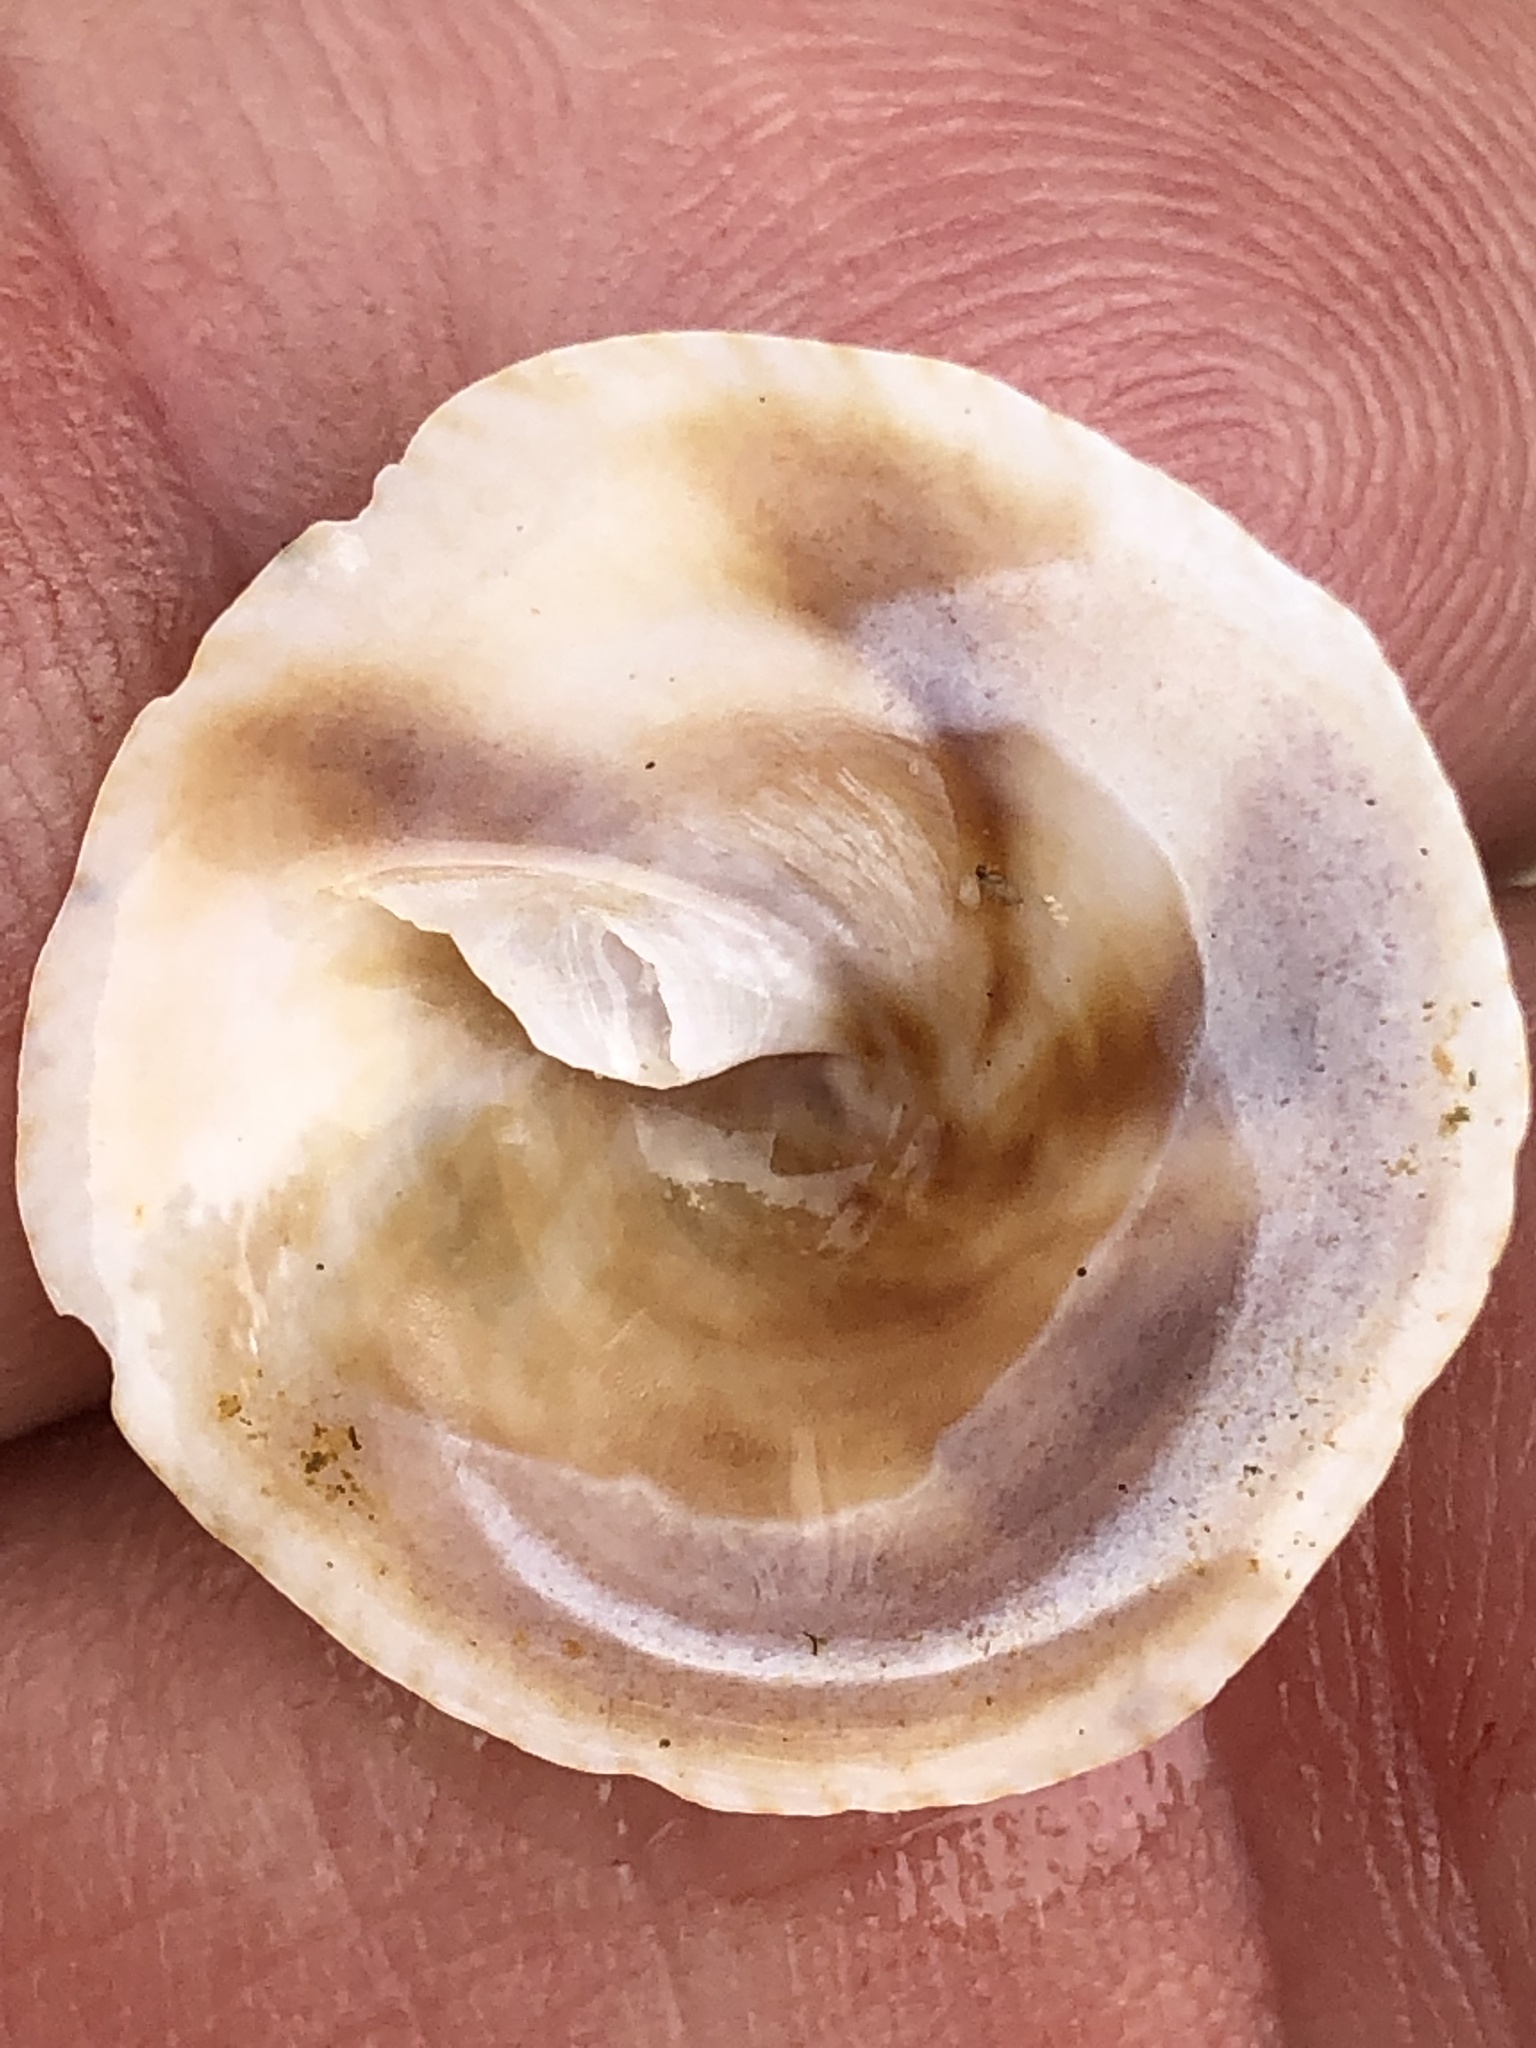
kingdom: Animalia
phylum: Mollusca
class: Gastropoda
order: Littorinimorpha
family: Calyptraeidae
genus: Desmaulus
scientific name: Desmaulus extinctorium
